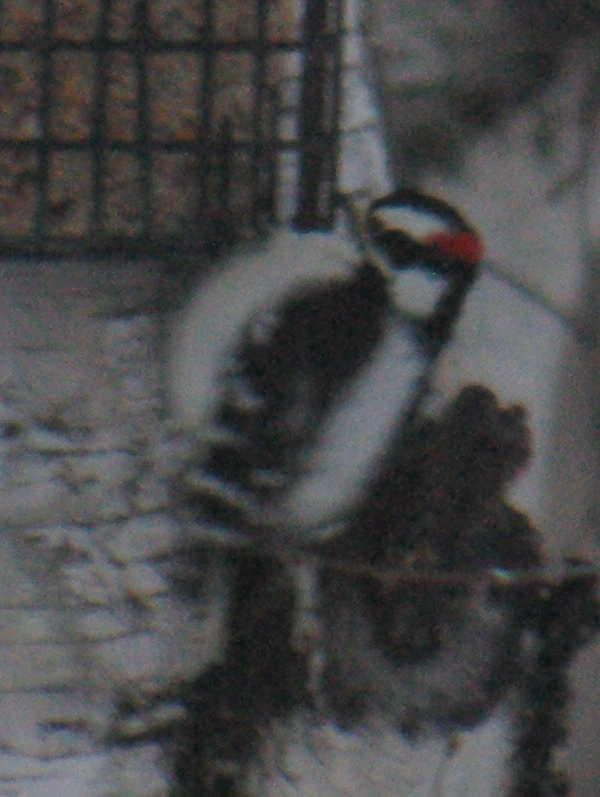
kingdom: Animalia
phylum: Chordata
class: Aves
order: Piciformes
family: Picidae
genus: Dryobates
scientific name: Dryobates pubescens
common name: Downy woodpecker
